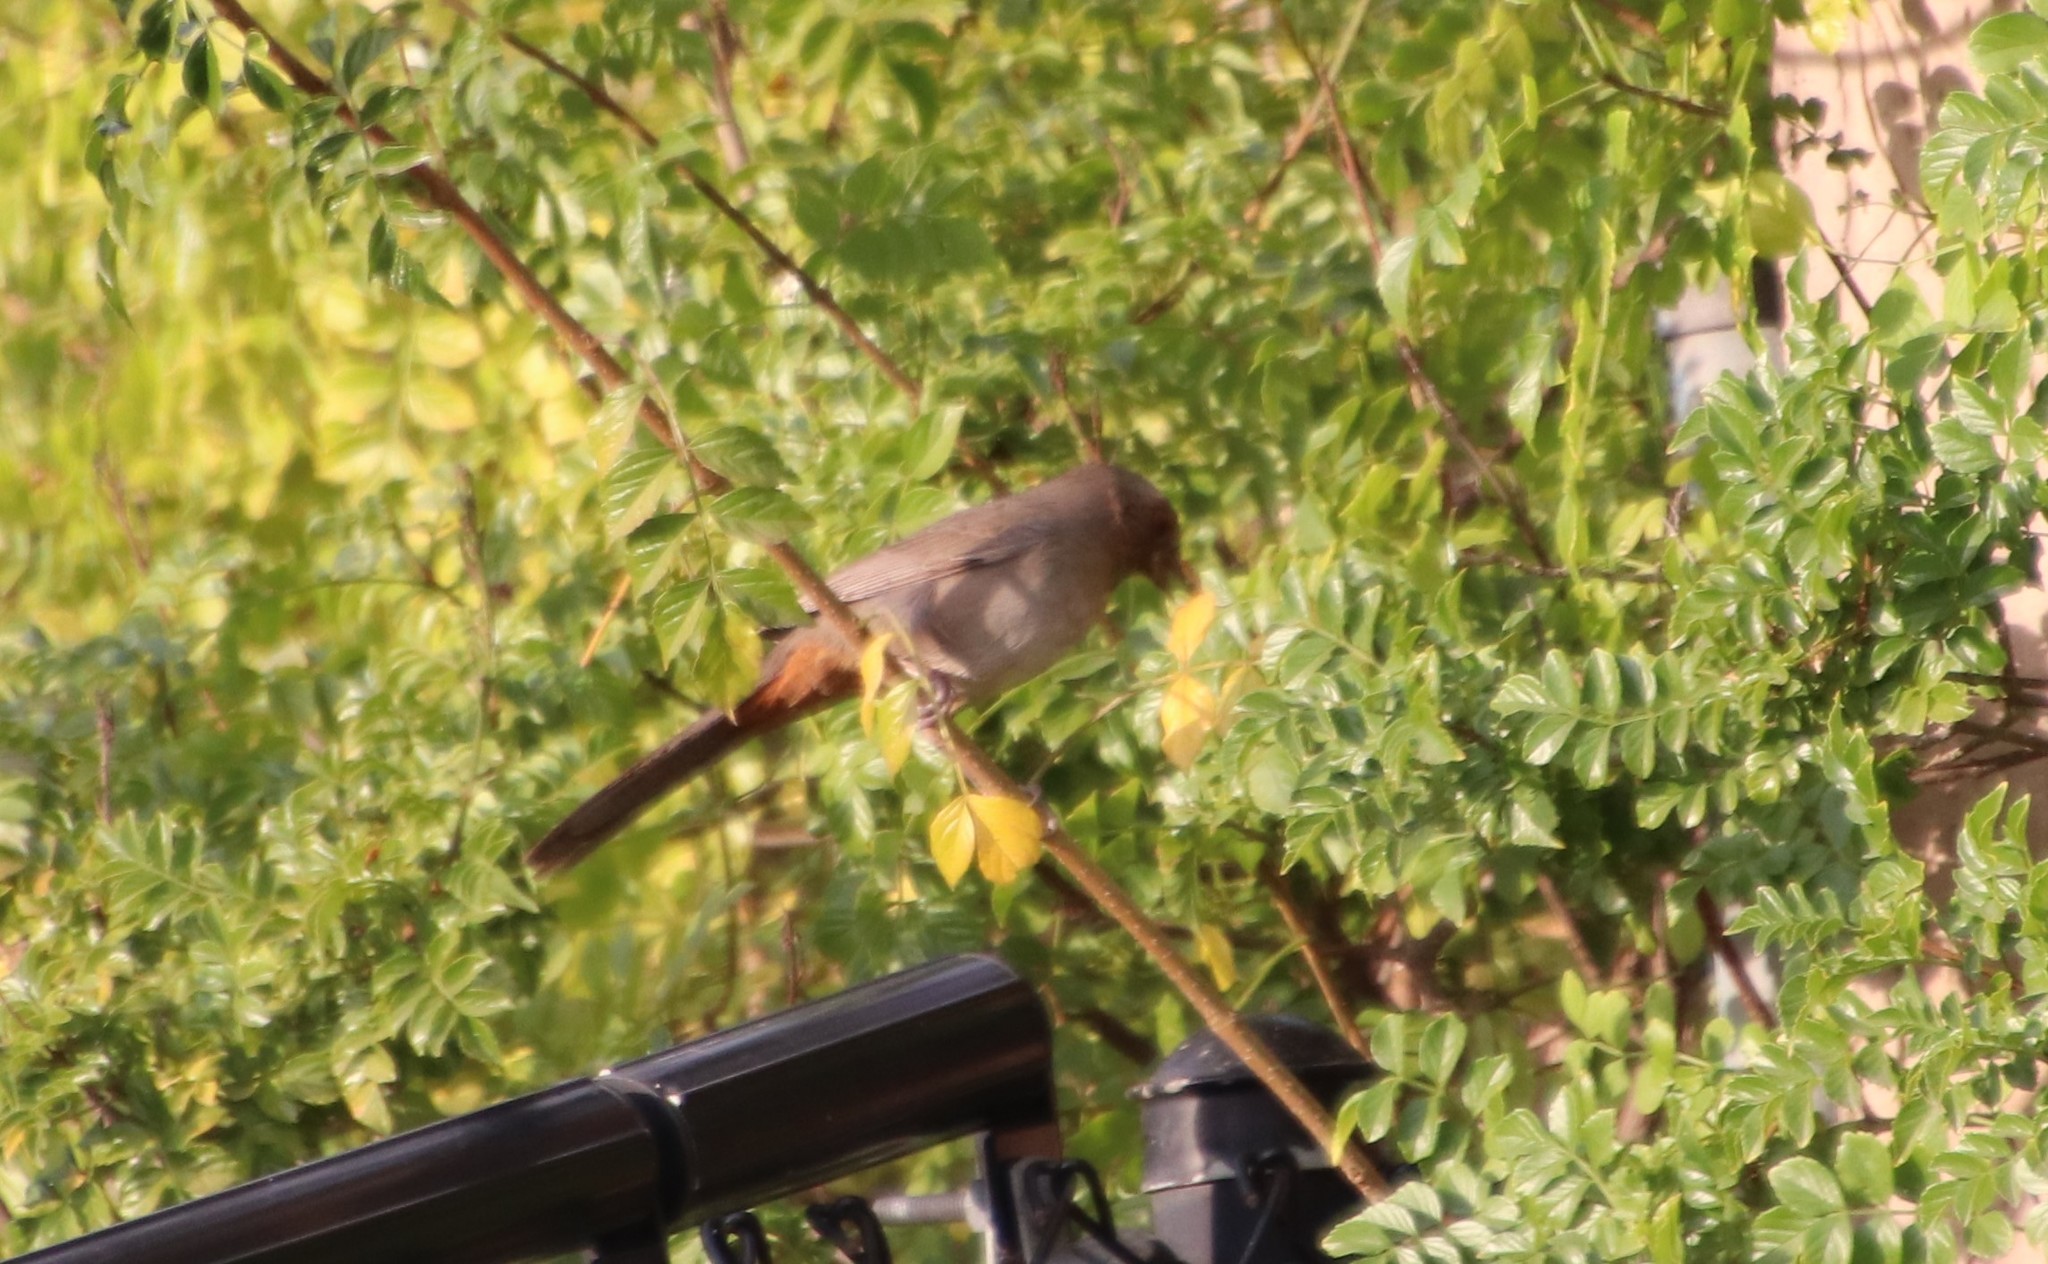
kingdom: Animalia
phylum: Chordata
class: Aves
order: Passeriformes
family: Passerellidae
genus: Melozone
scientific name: Melozone crissalis
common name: California towhee
